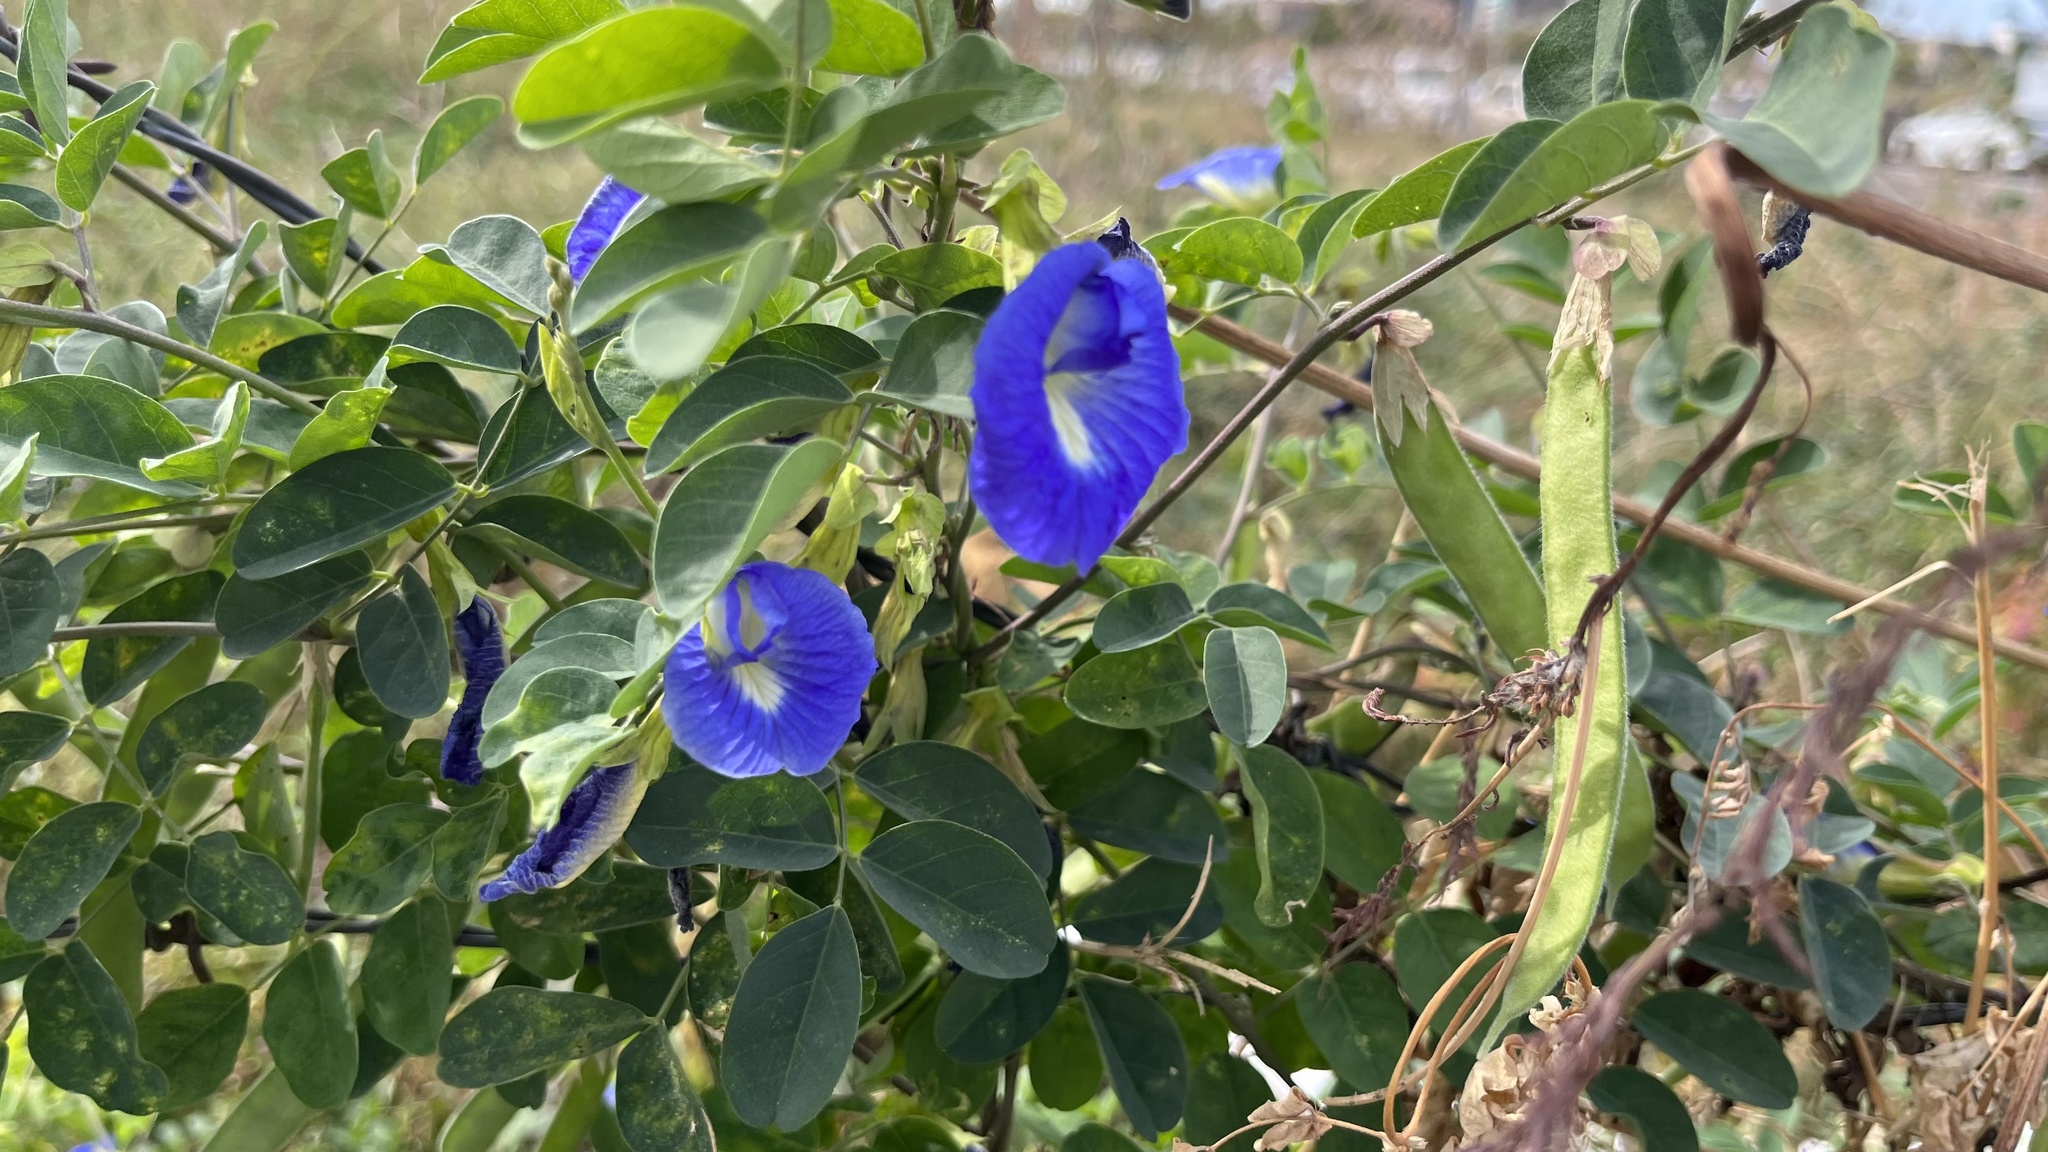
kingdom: Plantae
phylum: Tracheophyta
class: Magnoliopsida
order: Fabales
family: Fabaceae
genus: Clitoria
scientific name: Clitoria ternatea
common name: Asian pigeonwings
